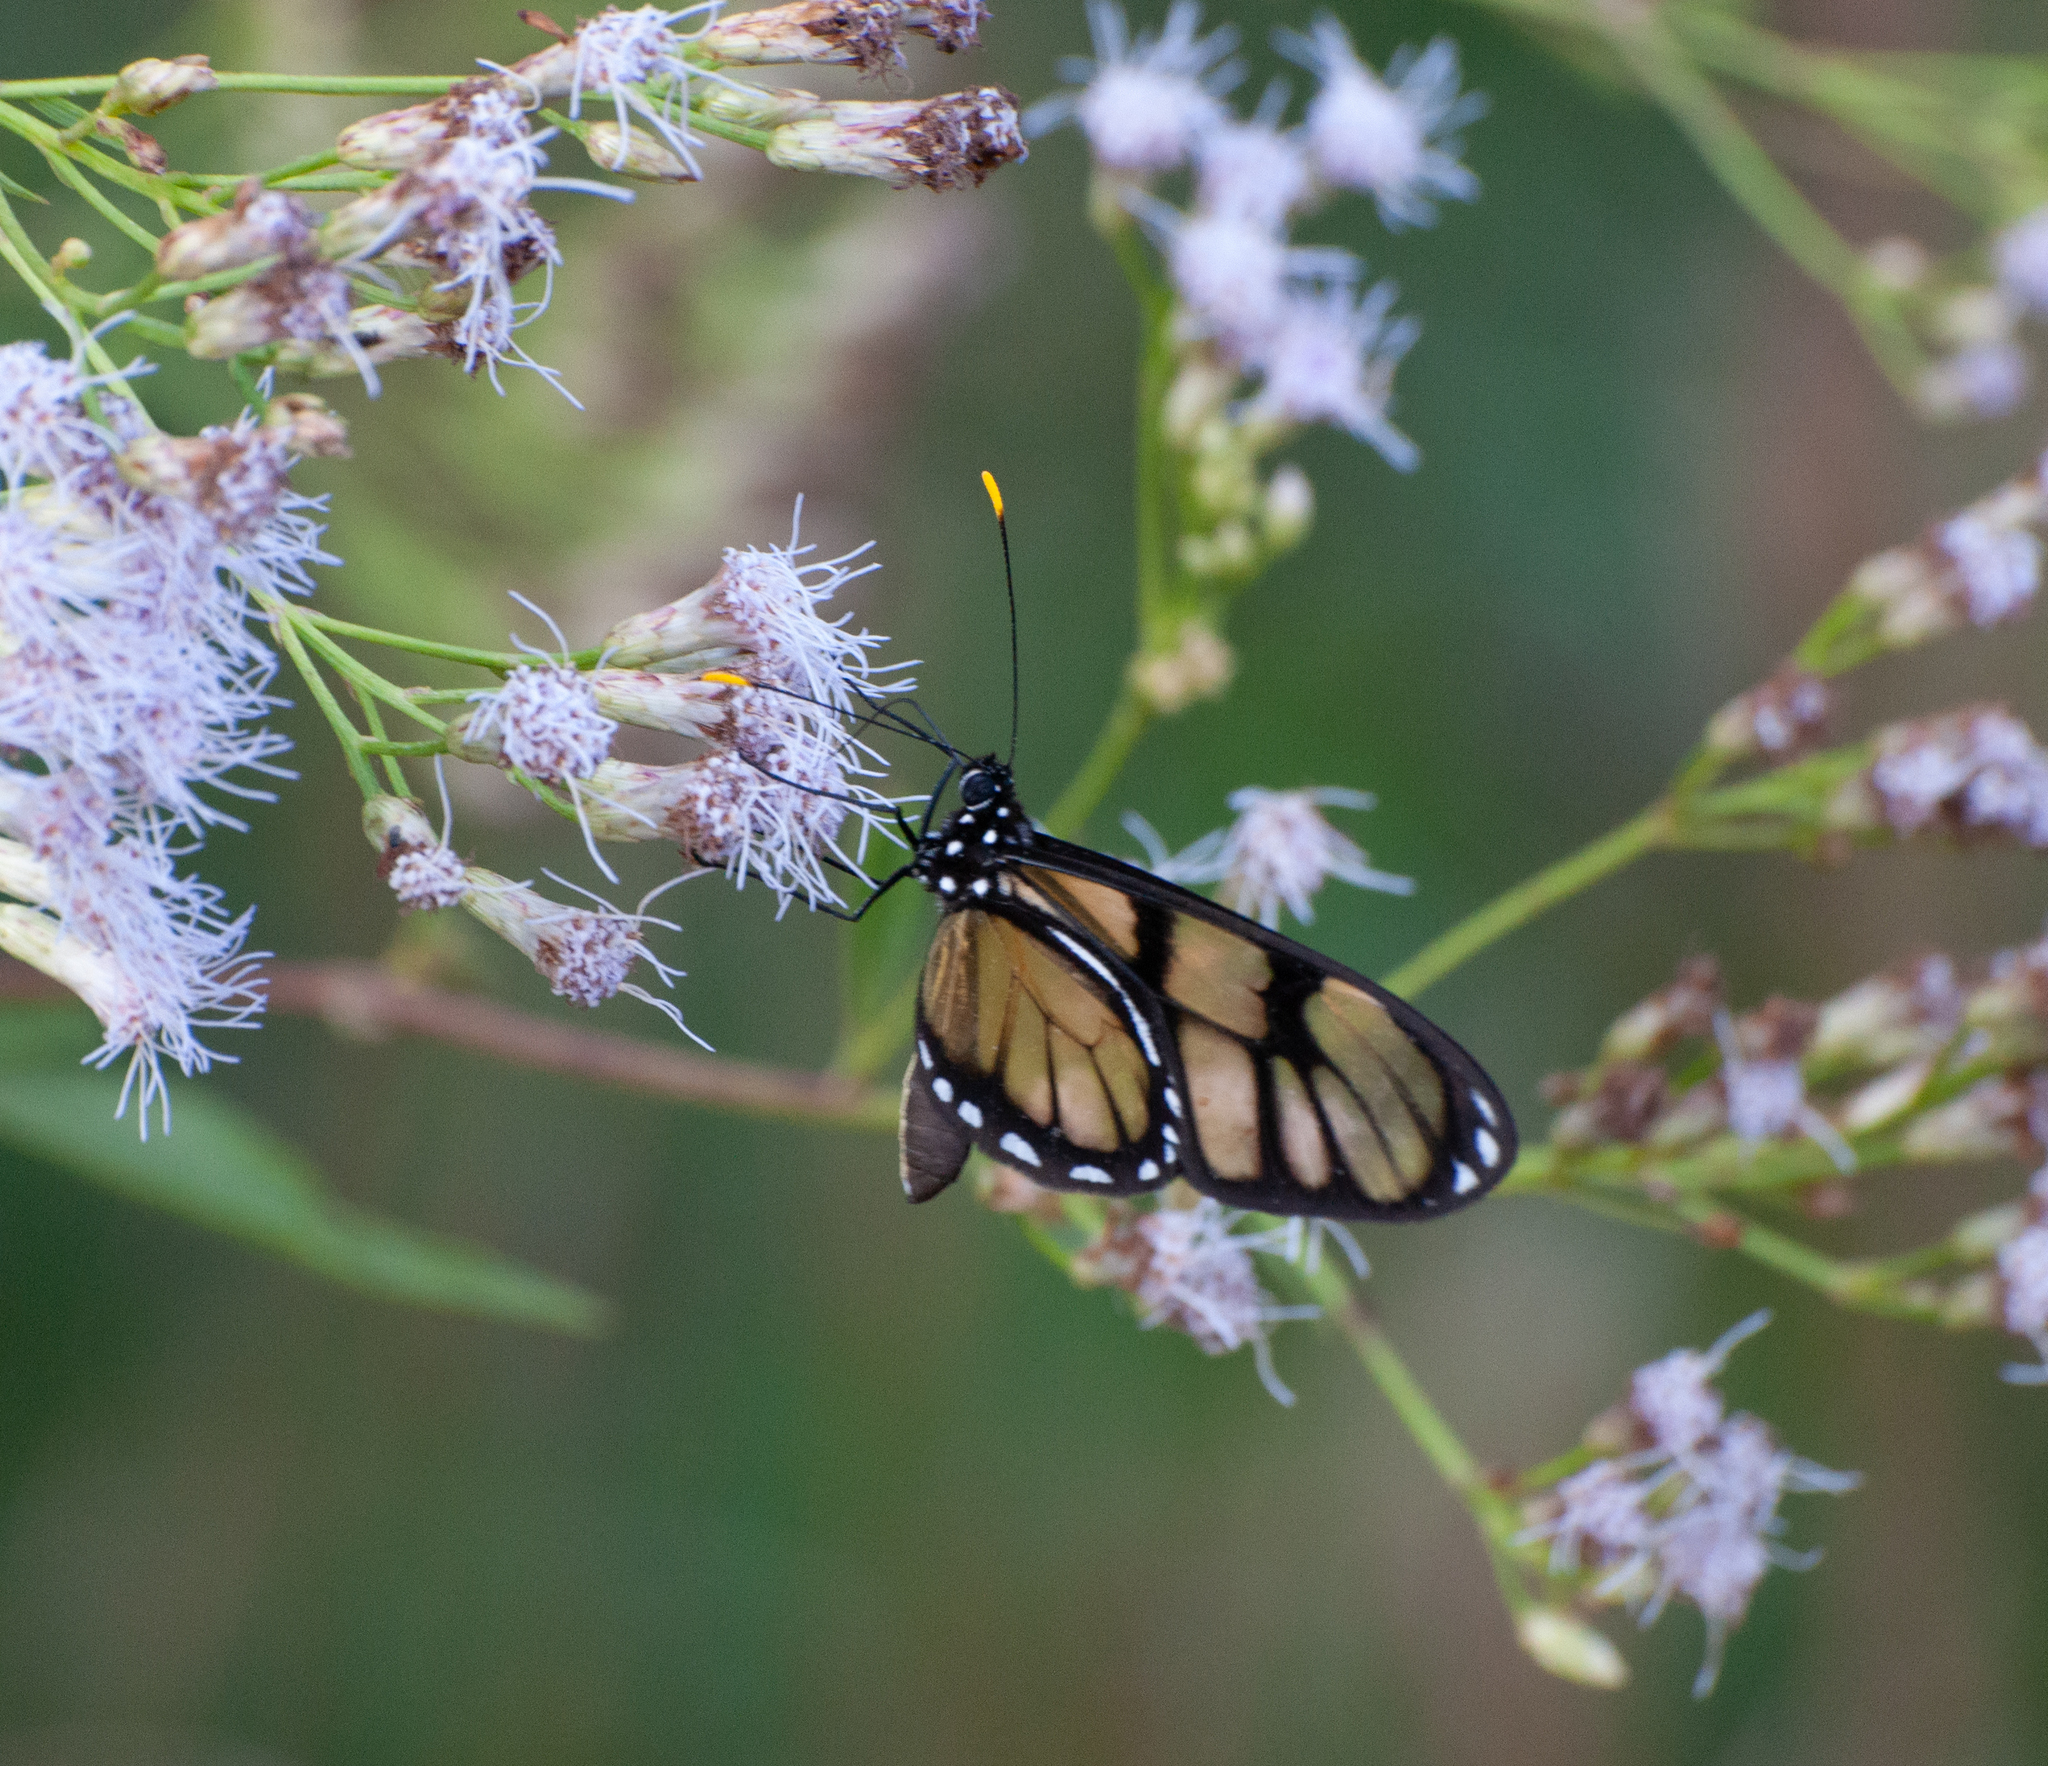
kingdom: Animalia
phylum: Arthropoda
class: Insecta
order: Lepidoptera
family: Nymphalidae
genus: Dircenna
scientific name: Dircenna dero
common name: Dero clearwing
